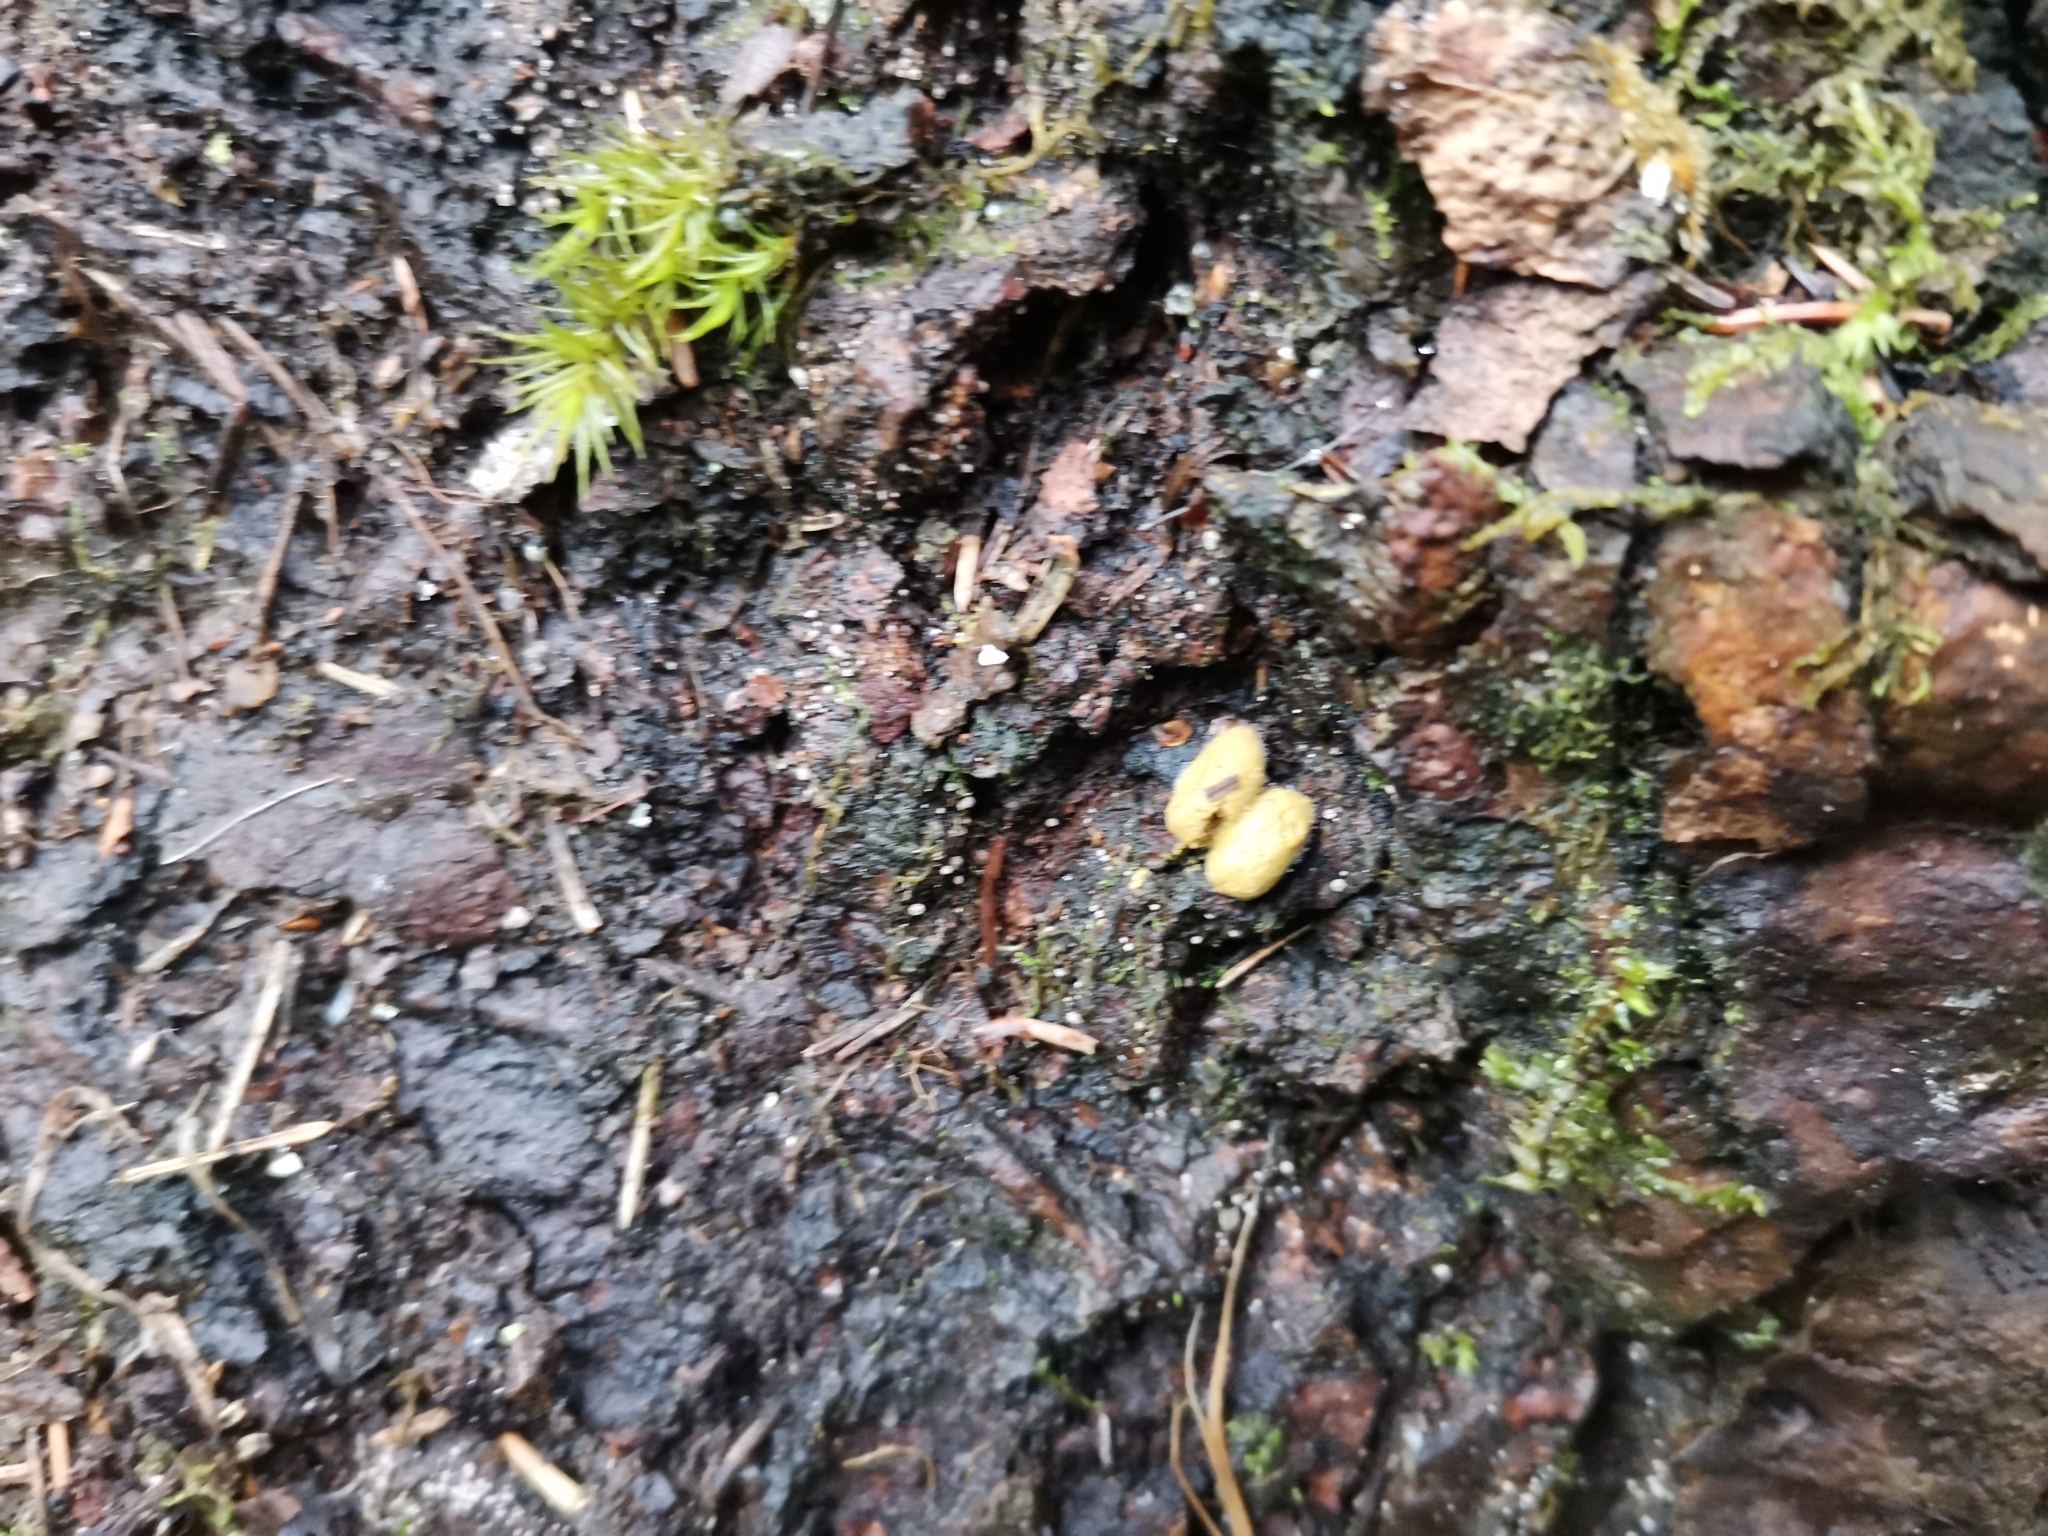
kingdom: Animalia
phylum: Chordata
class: Mammalia
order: Rodentia
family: Sciuridae
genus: Pteromys
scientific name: Pteromys volans
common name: Siberian flying squirrel
